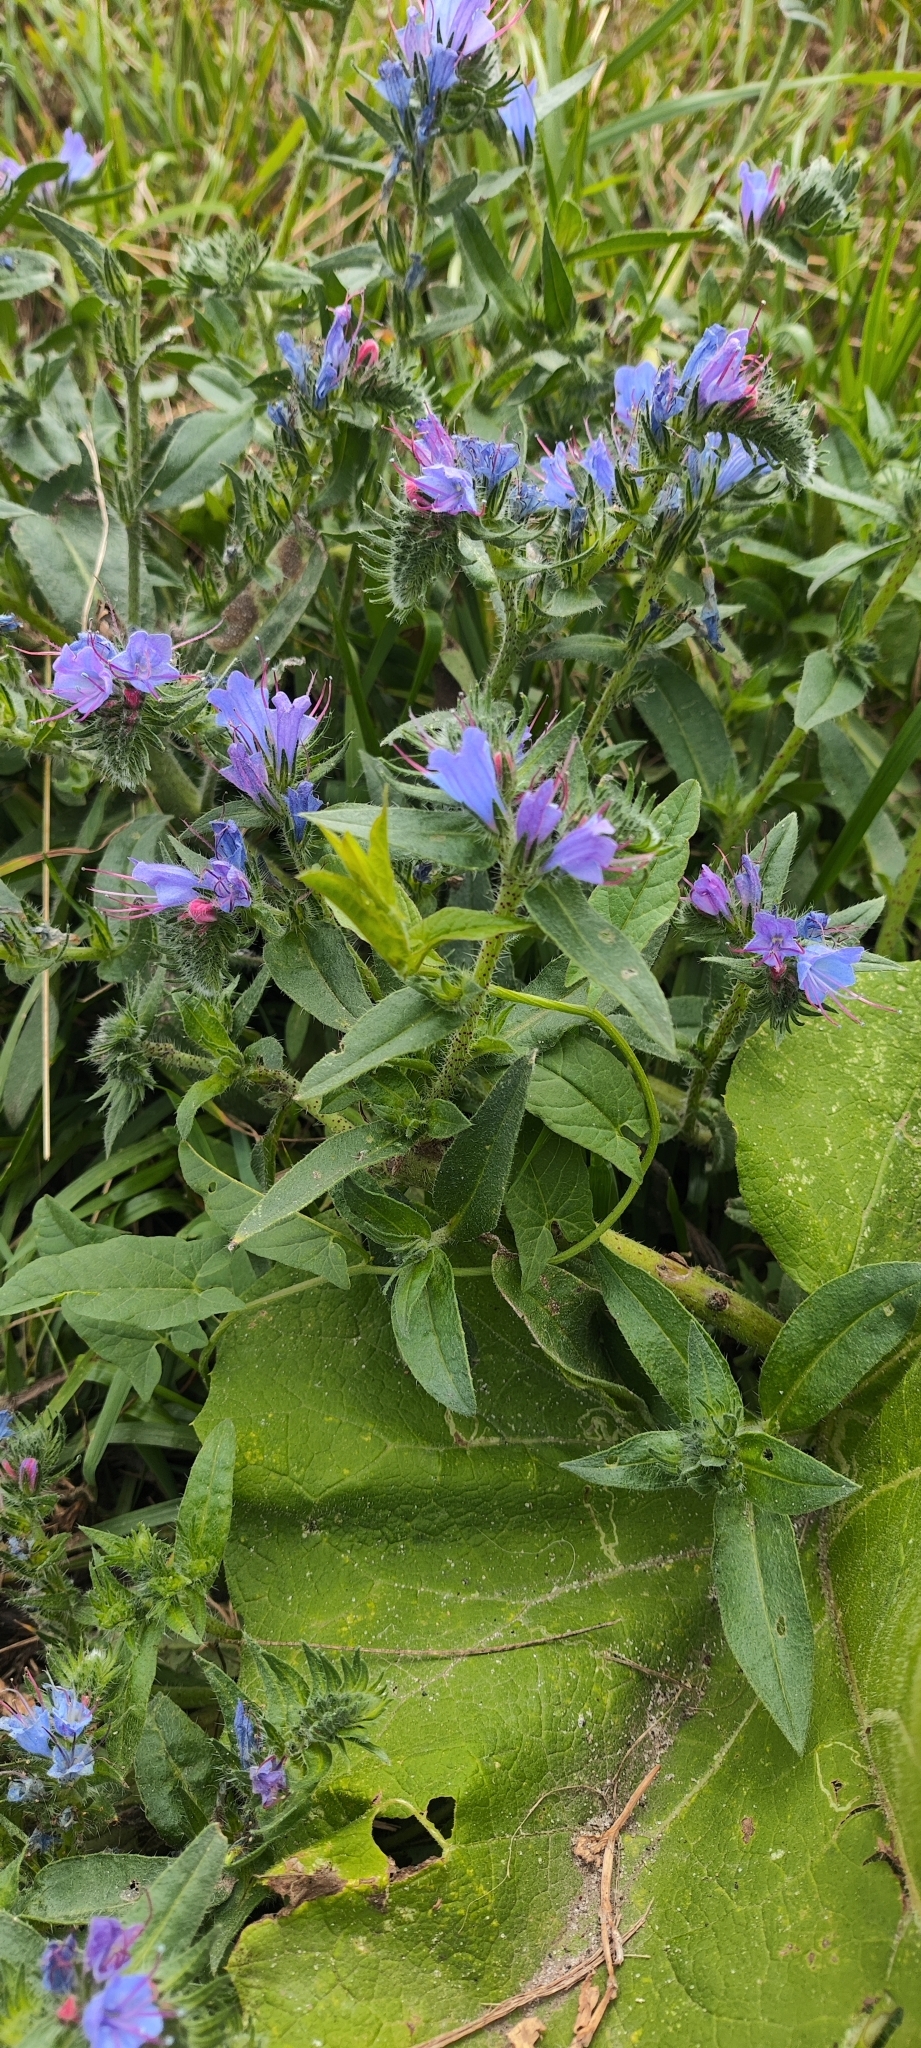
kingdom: Plantae
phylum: Tracheophyta
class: Magnoliopsida
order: Boraginales
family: Boraginaceae
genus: Echium
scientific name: Echium vulgare
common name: Common viper's bugloss
